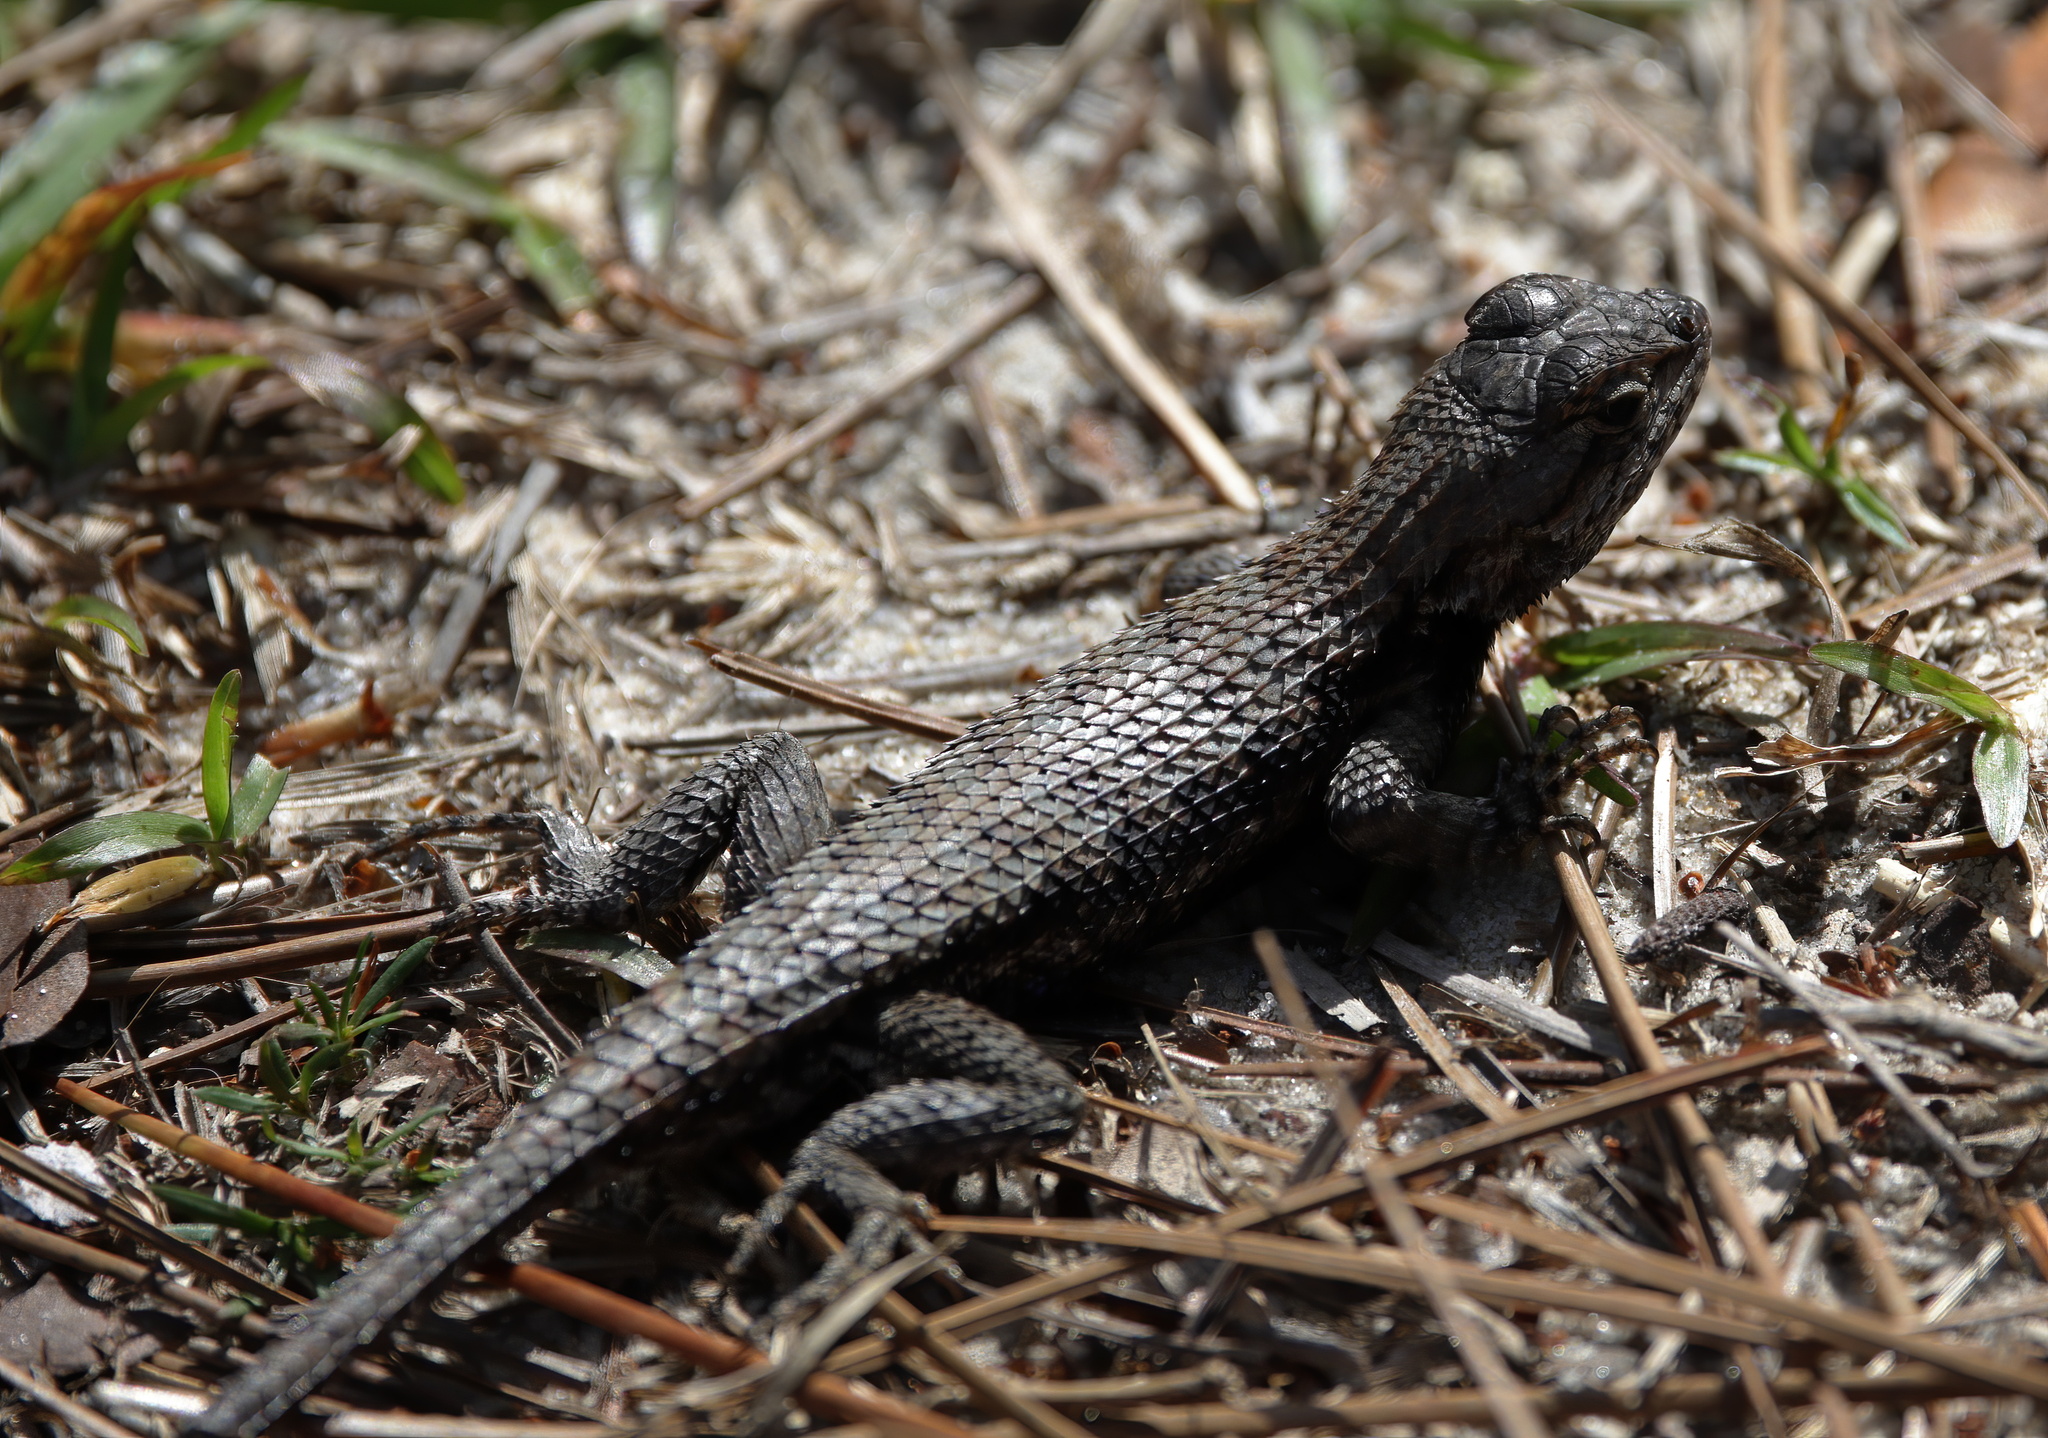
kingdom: Animalia
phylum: Chordata
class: Squamata
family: Phrynosomatidae
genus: Sceloporus
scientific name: Sceloporus undulatus
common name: Eastern fence lizard
